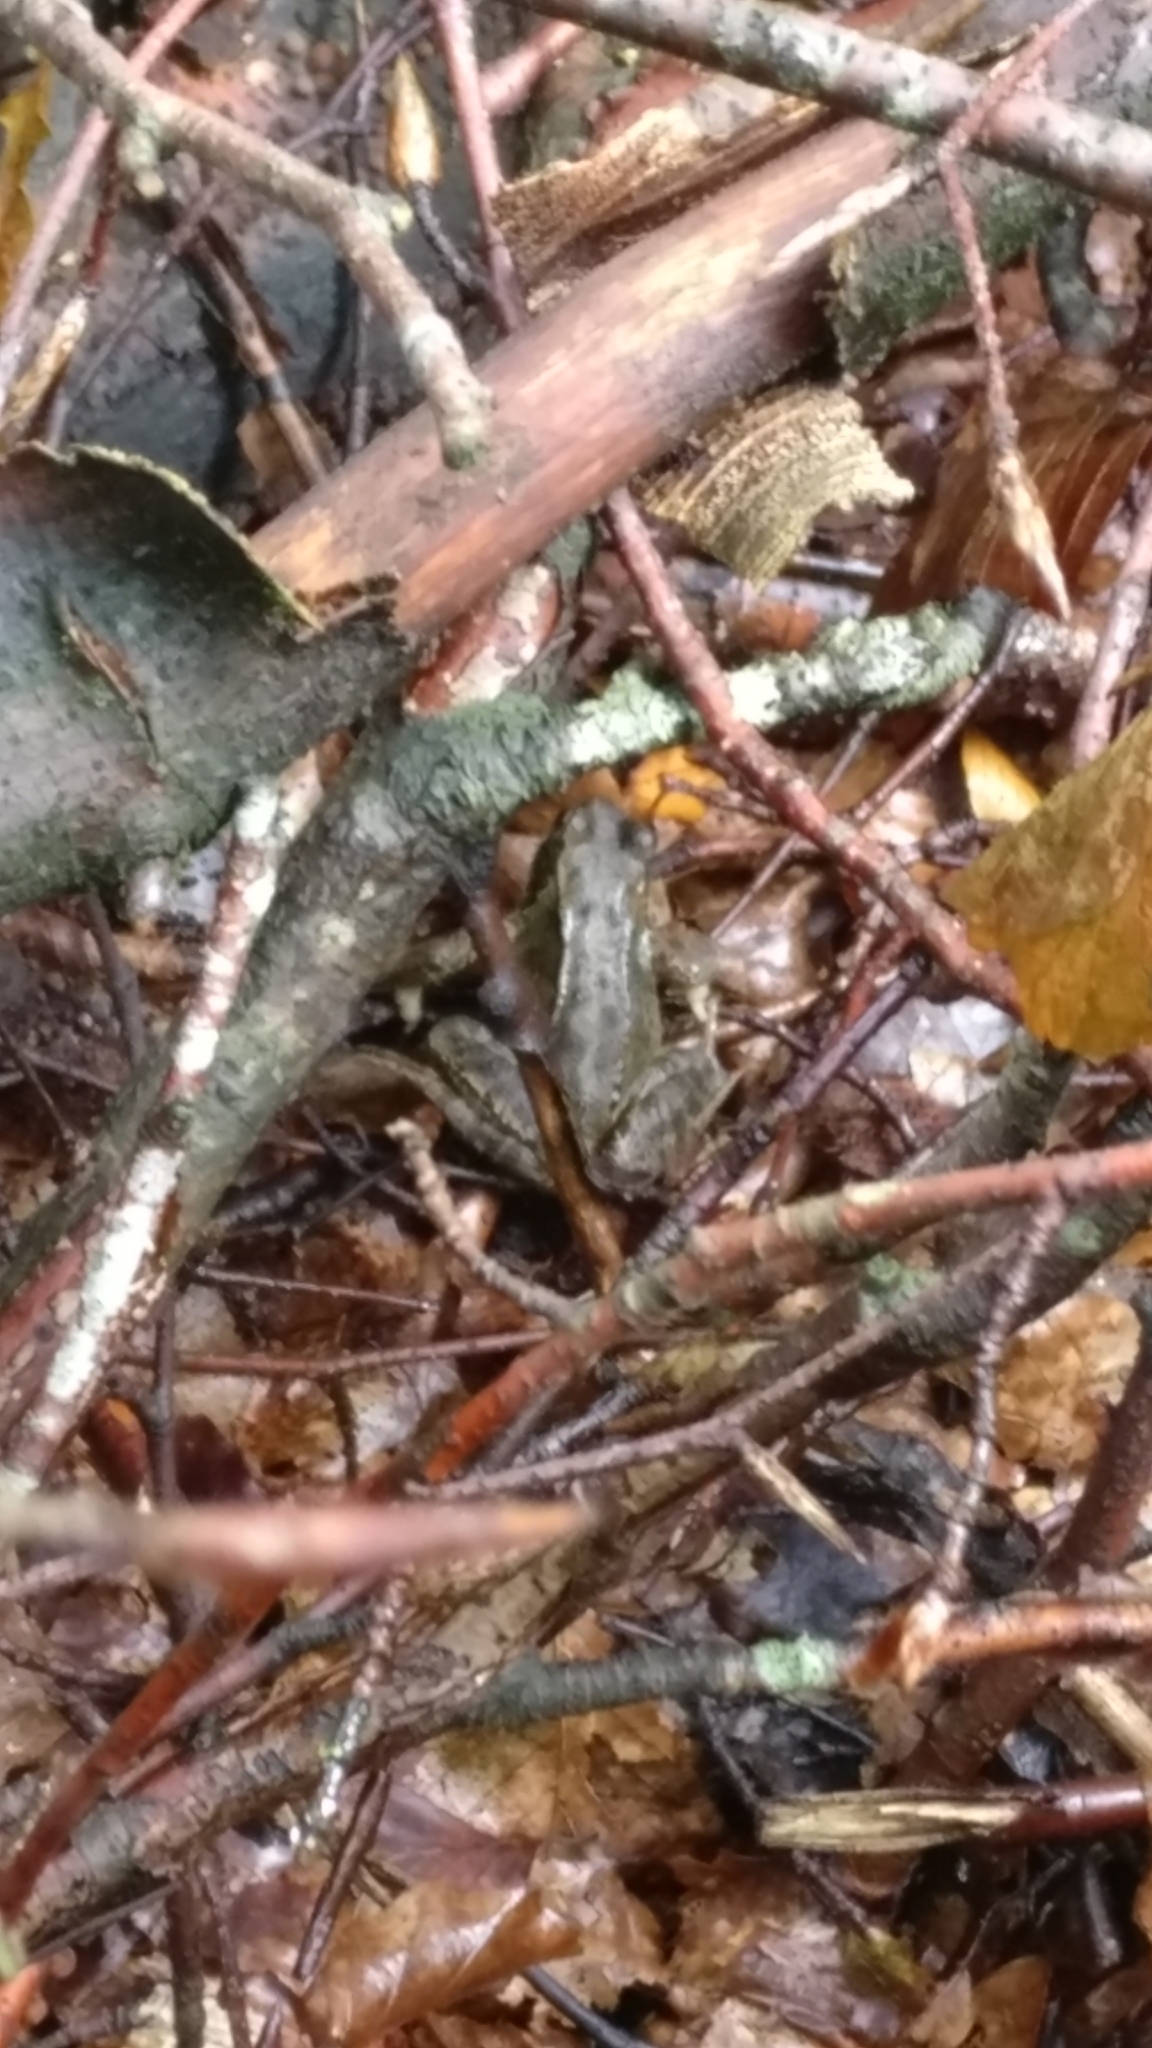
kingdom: Animalia
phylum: Chordata
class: Amphibia
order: Anura
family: Ranidae
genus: Rana
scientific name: Rana temporaria
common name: Common frog
